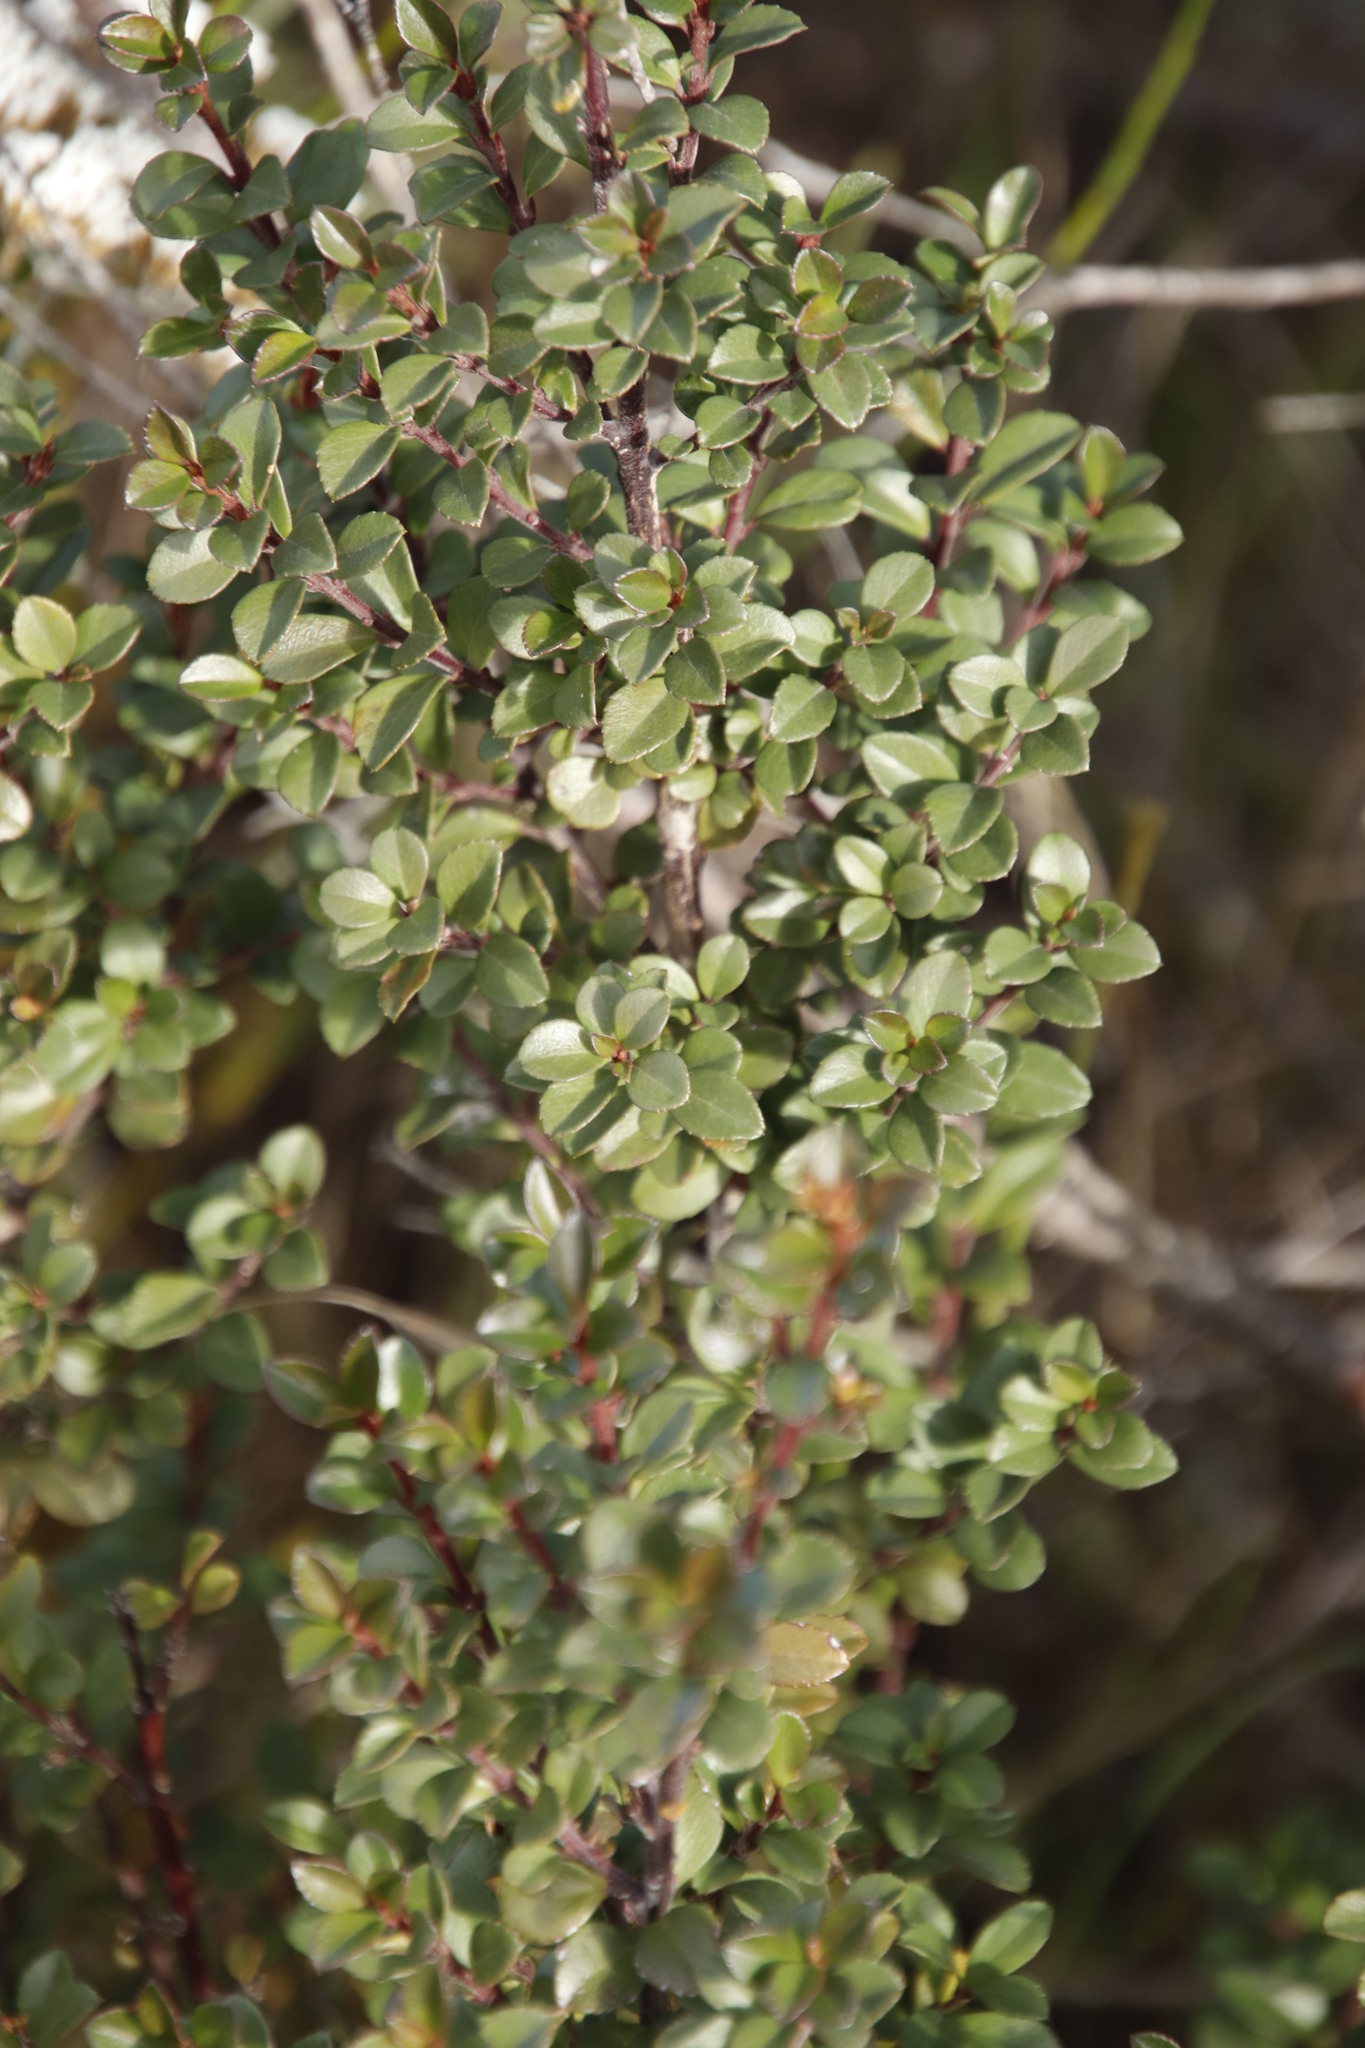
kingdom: Plantae
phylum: Tracheophyta
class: Magnoliopsida
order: Ericales
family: Primulaceae
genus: Myrsine
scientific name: Myrsine africana
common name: African-boxwood
